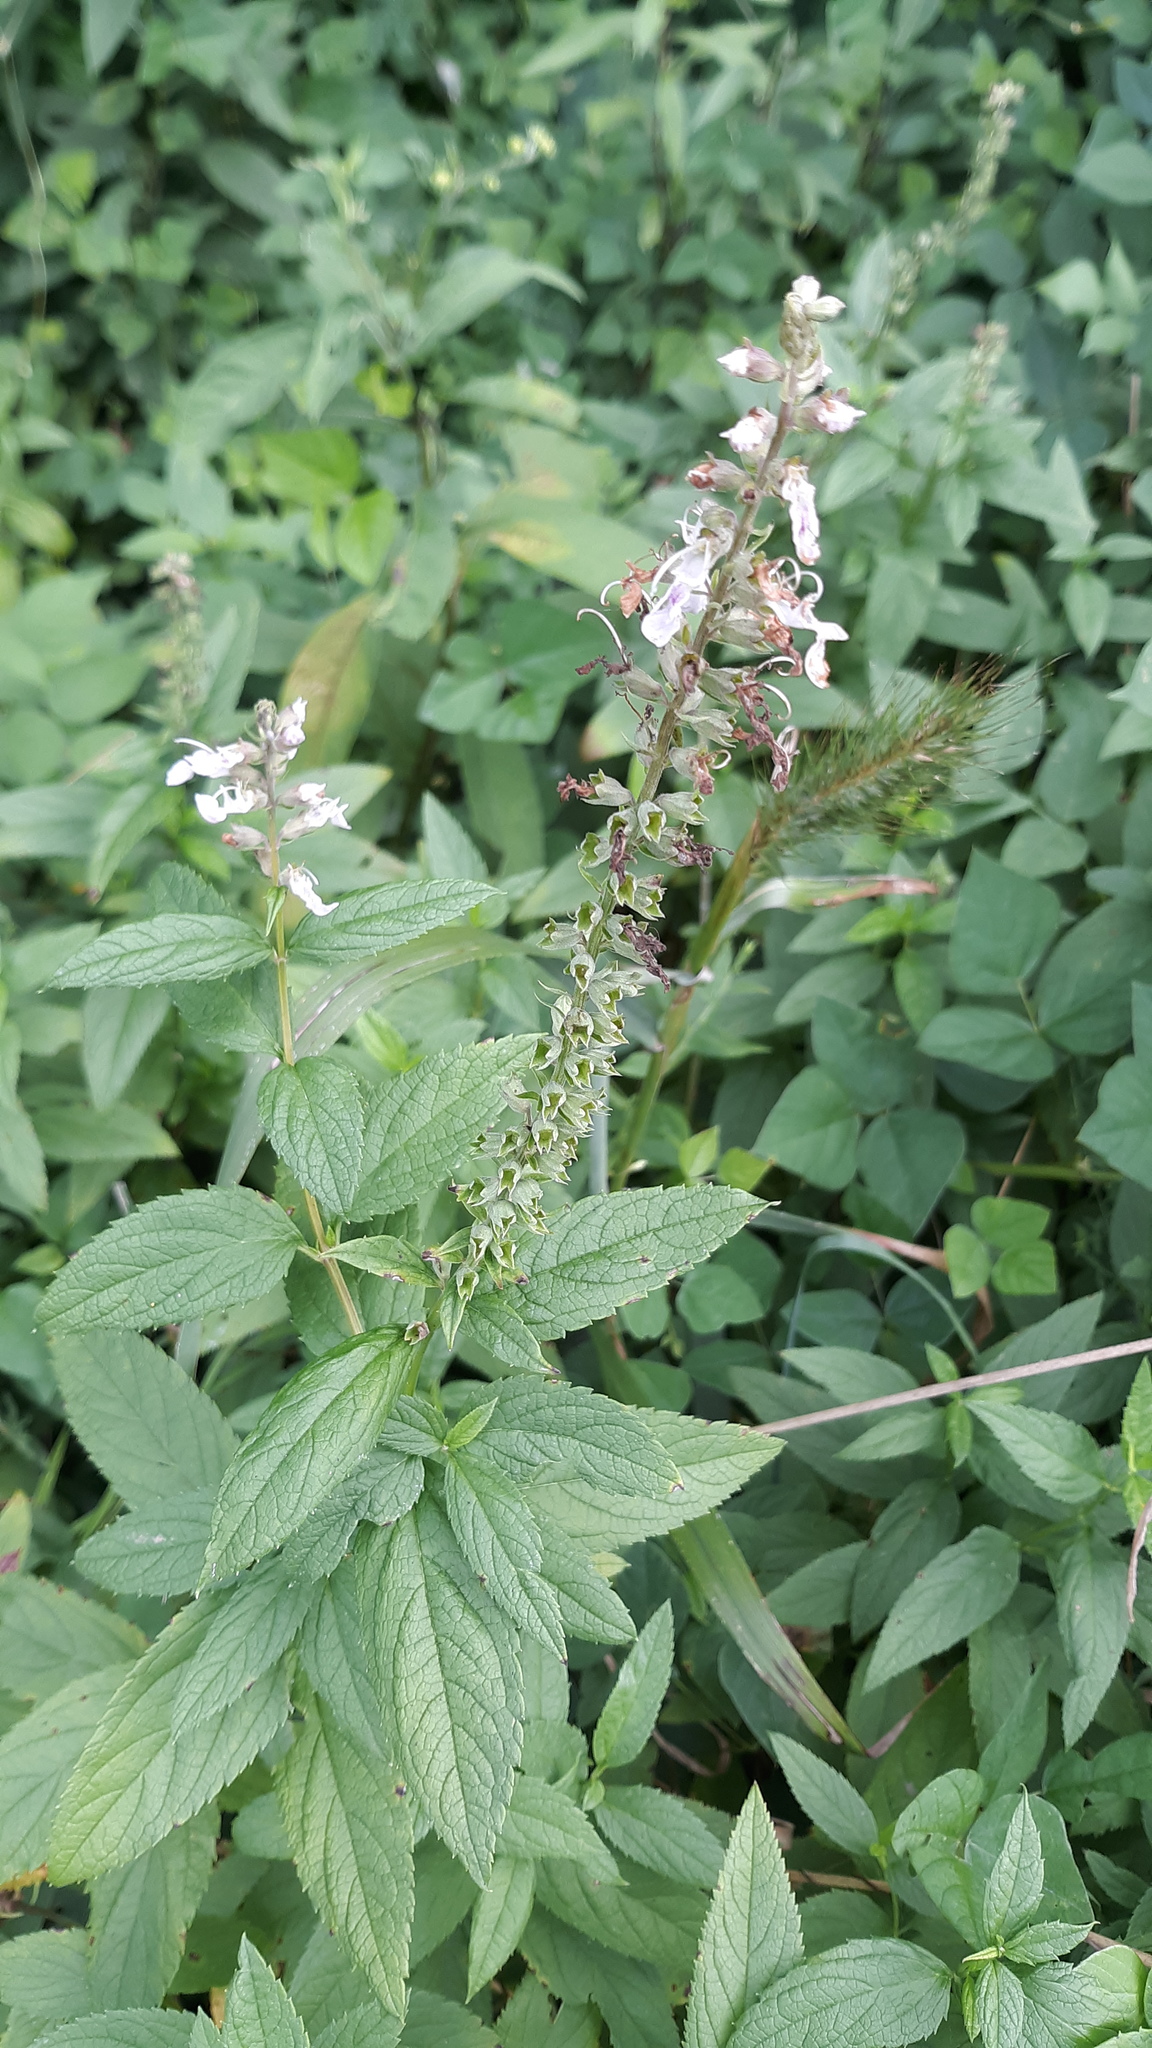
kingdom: Plantae
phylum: Tracheophyta
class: Magnoliopsida
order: Lamiales
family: Lamiaceae
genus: Teucrium
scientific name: Teucrium canadense
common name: American germander
